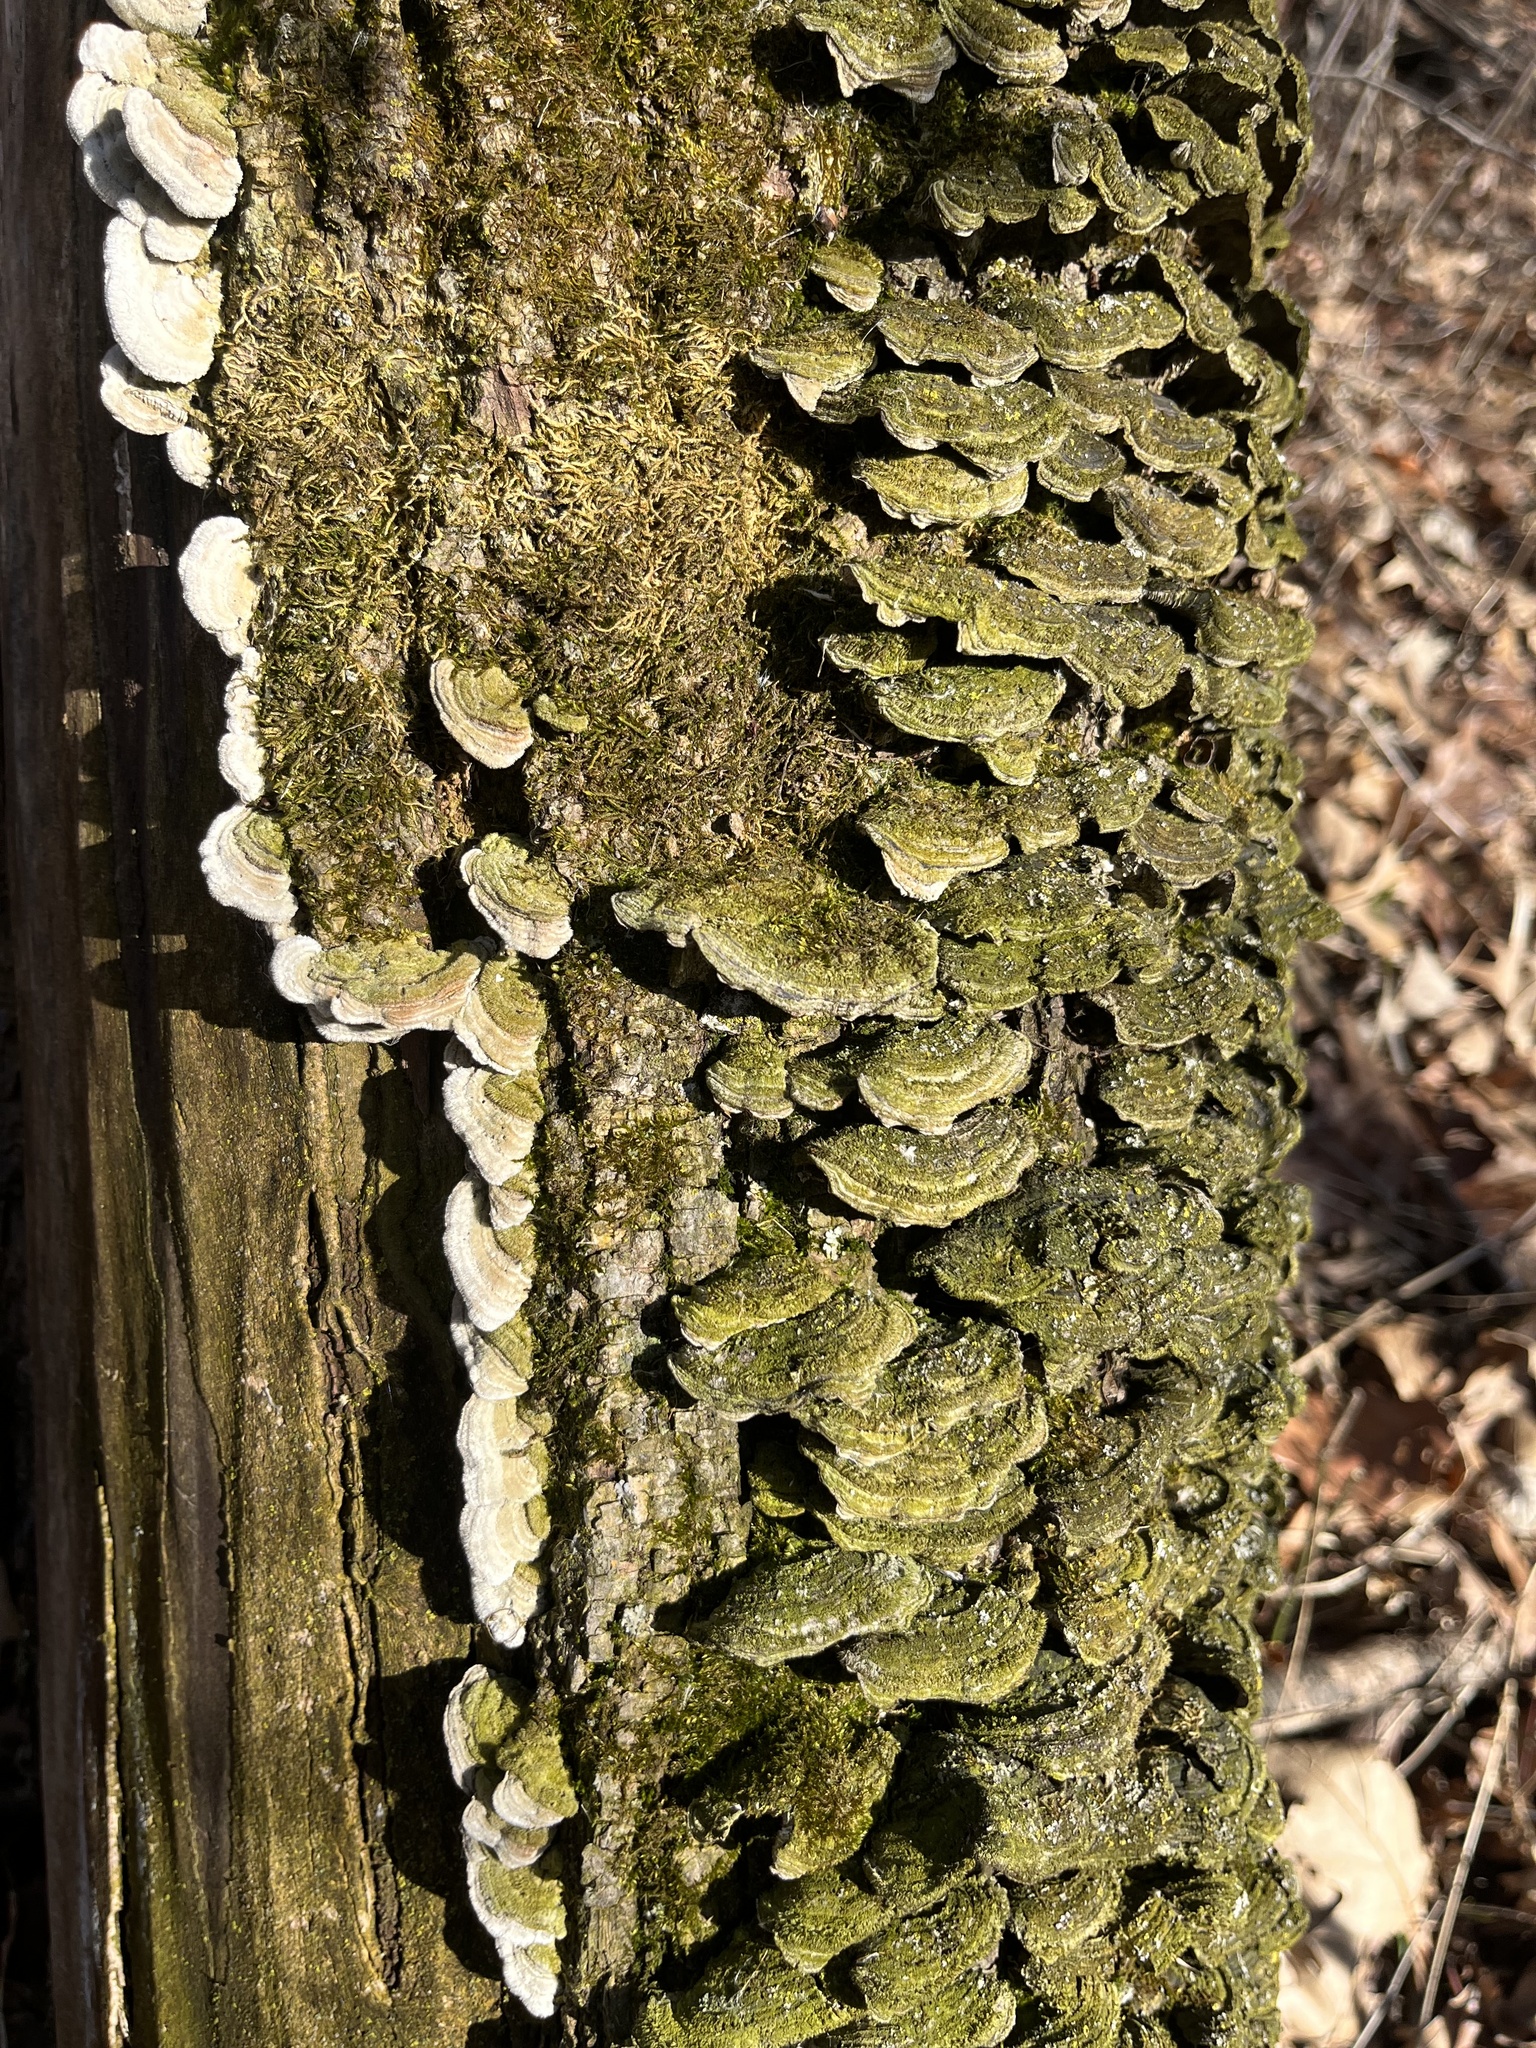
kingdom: Fungi
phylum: Basidiomycota
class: Agaricomycetes
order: Polyporales
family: Cerrenaceae
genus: Cerrena
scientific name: Cerrena unicolor
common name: Mossy maze polypore
